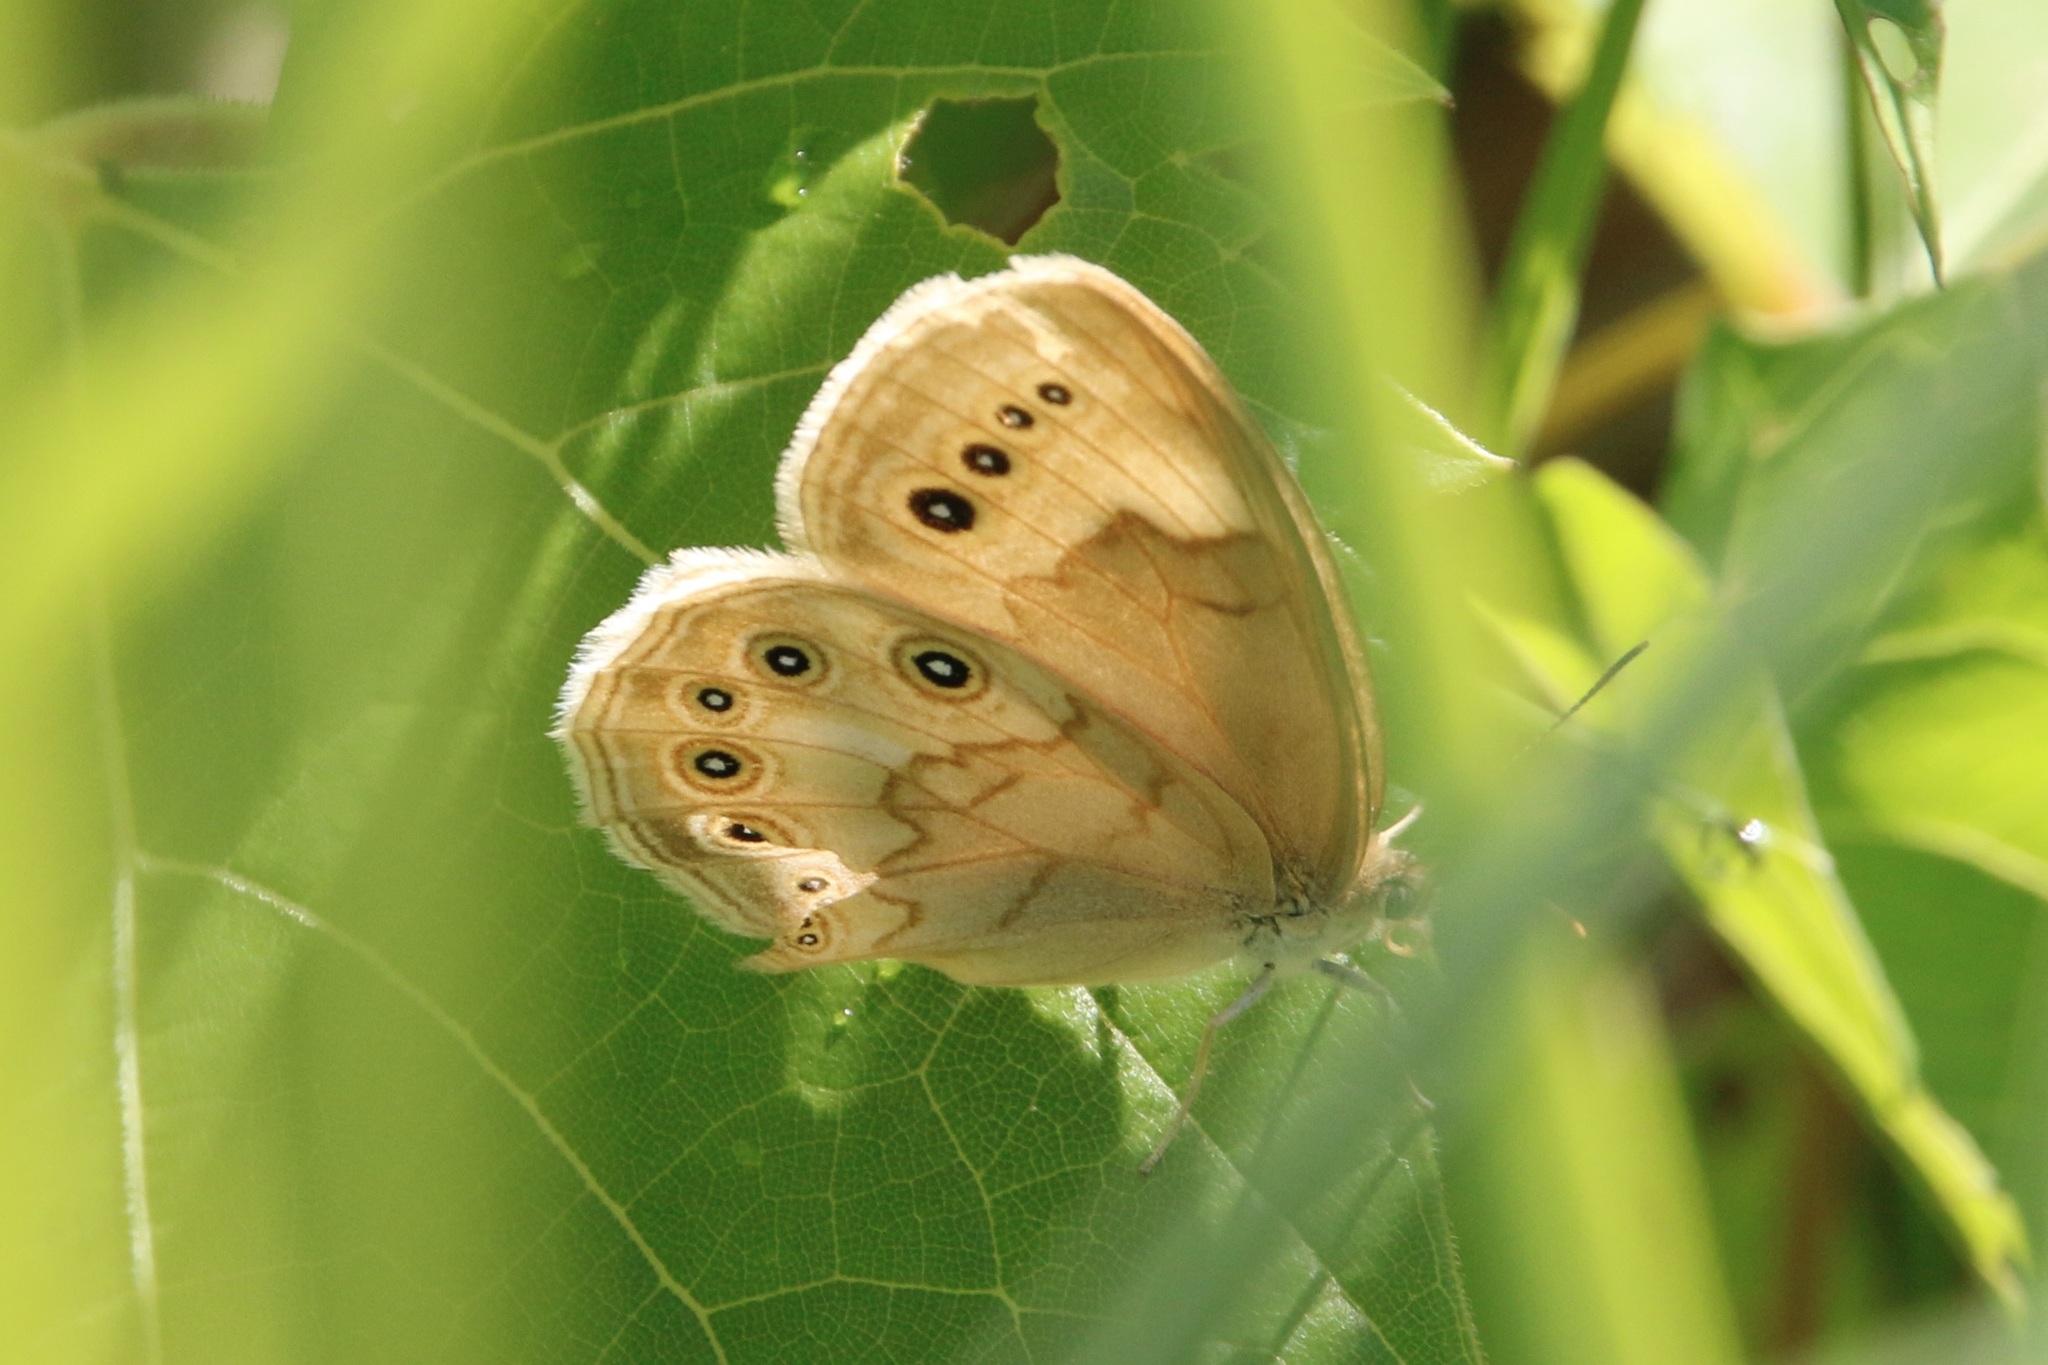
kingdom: Animalia
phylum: Arthropoda
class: Insecta
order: Lepidoptera
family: Nymphalidae
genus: Lethe
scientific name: Lethe eurydice
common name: Eyed brown
